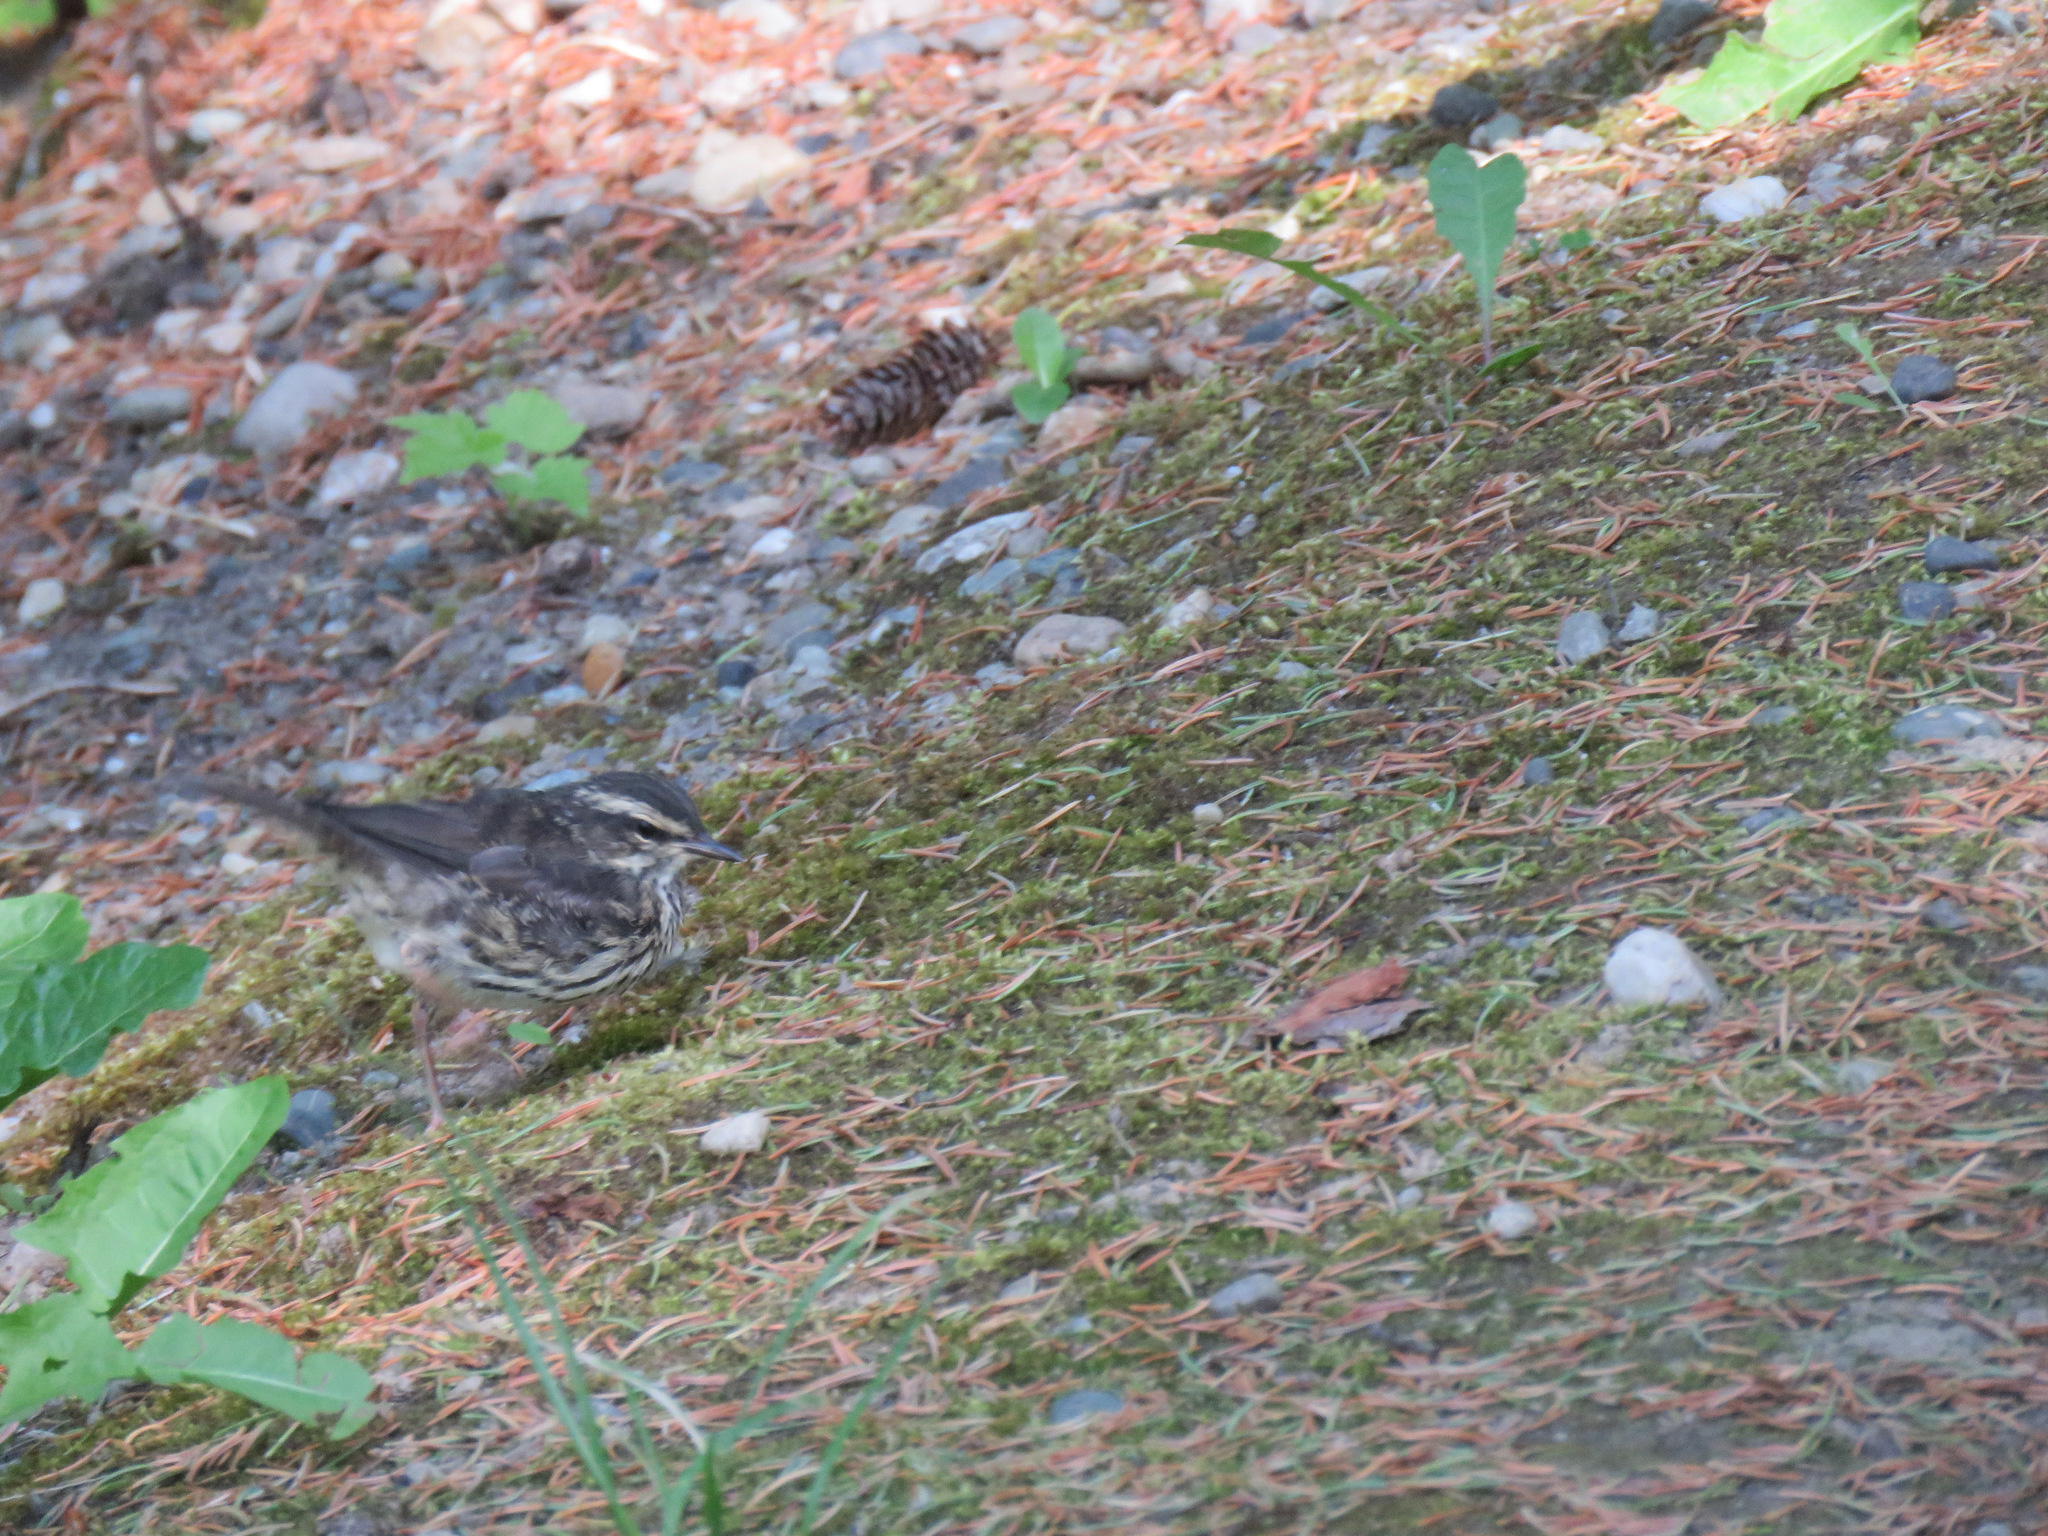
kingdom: Animalia
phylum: Chordata
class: Aves
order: Passeriformes
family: Parulidae
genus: Parkesia
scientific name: Parkesia noveboracensis
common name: Northern waterthrush
